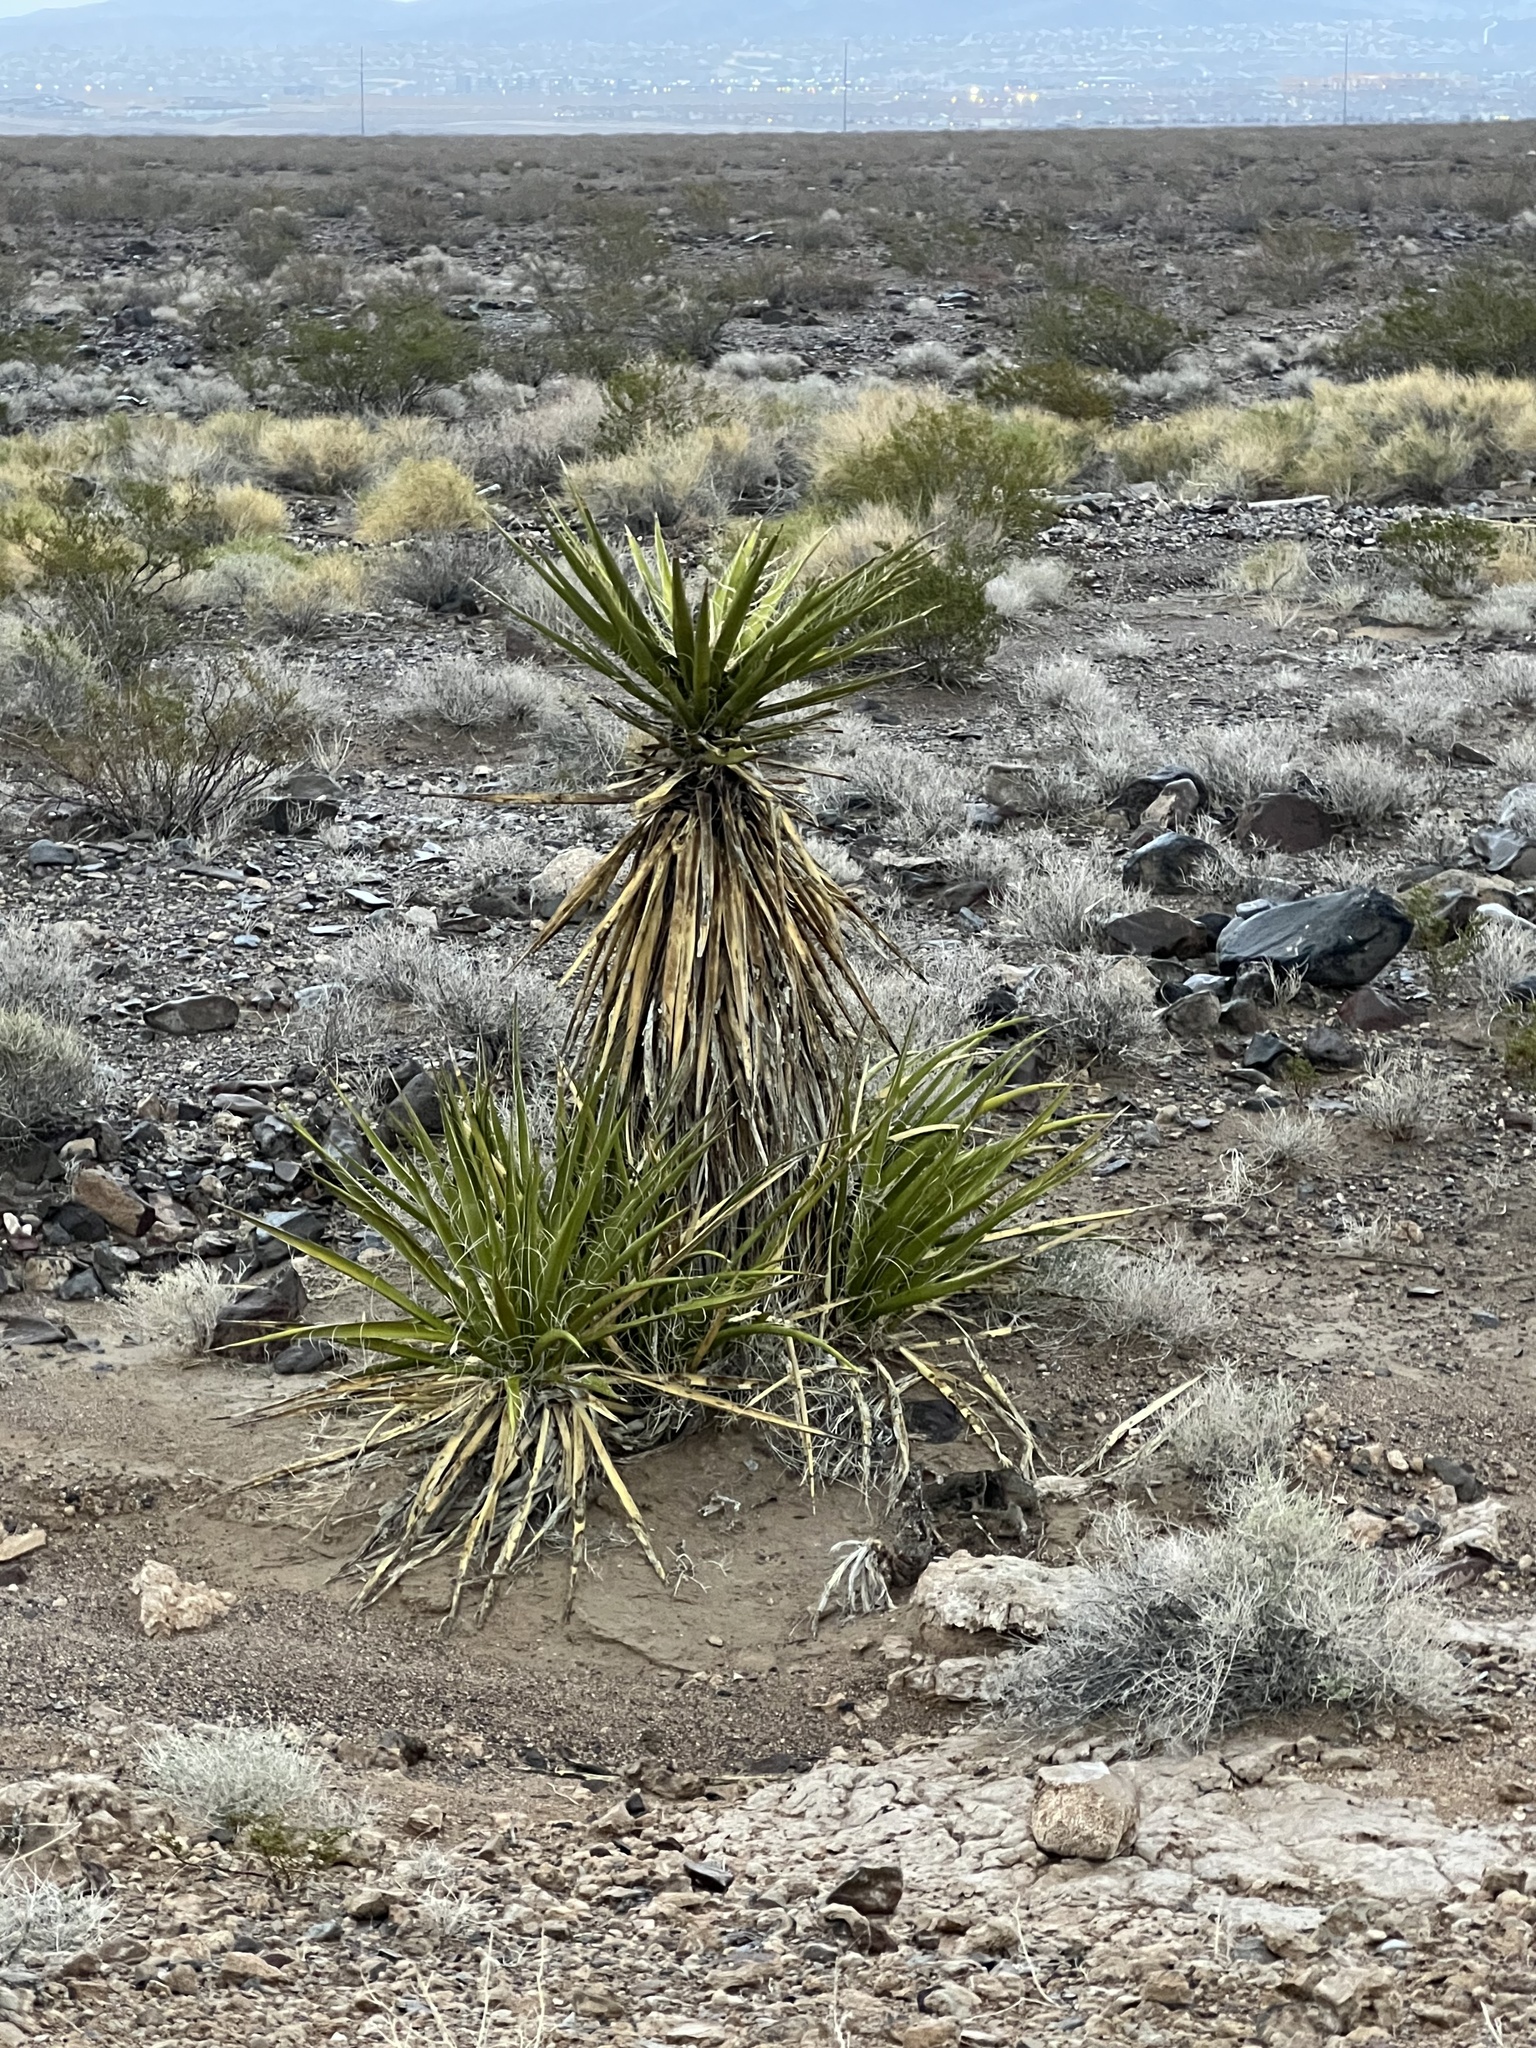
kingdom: Plantae
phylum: Tracheophyta
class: Liliopsida
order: Asparagales
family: Asparagaceae
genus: Yucca
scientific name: Yucca schidigera
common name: Mojave yucca
